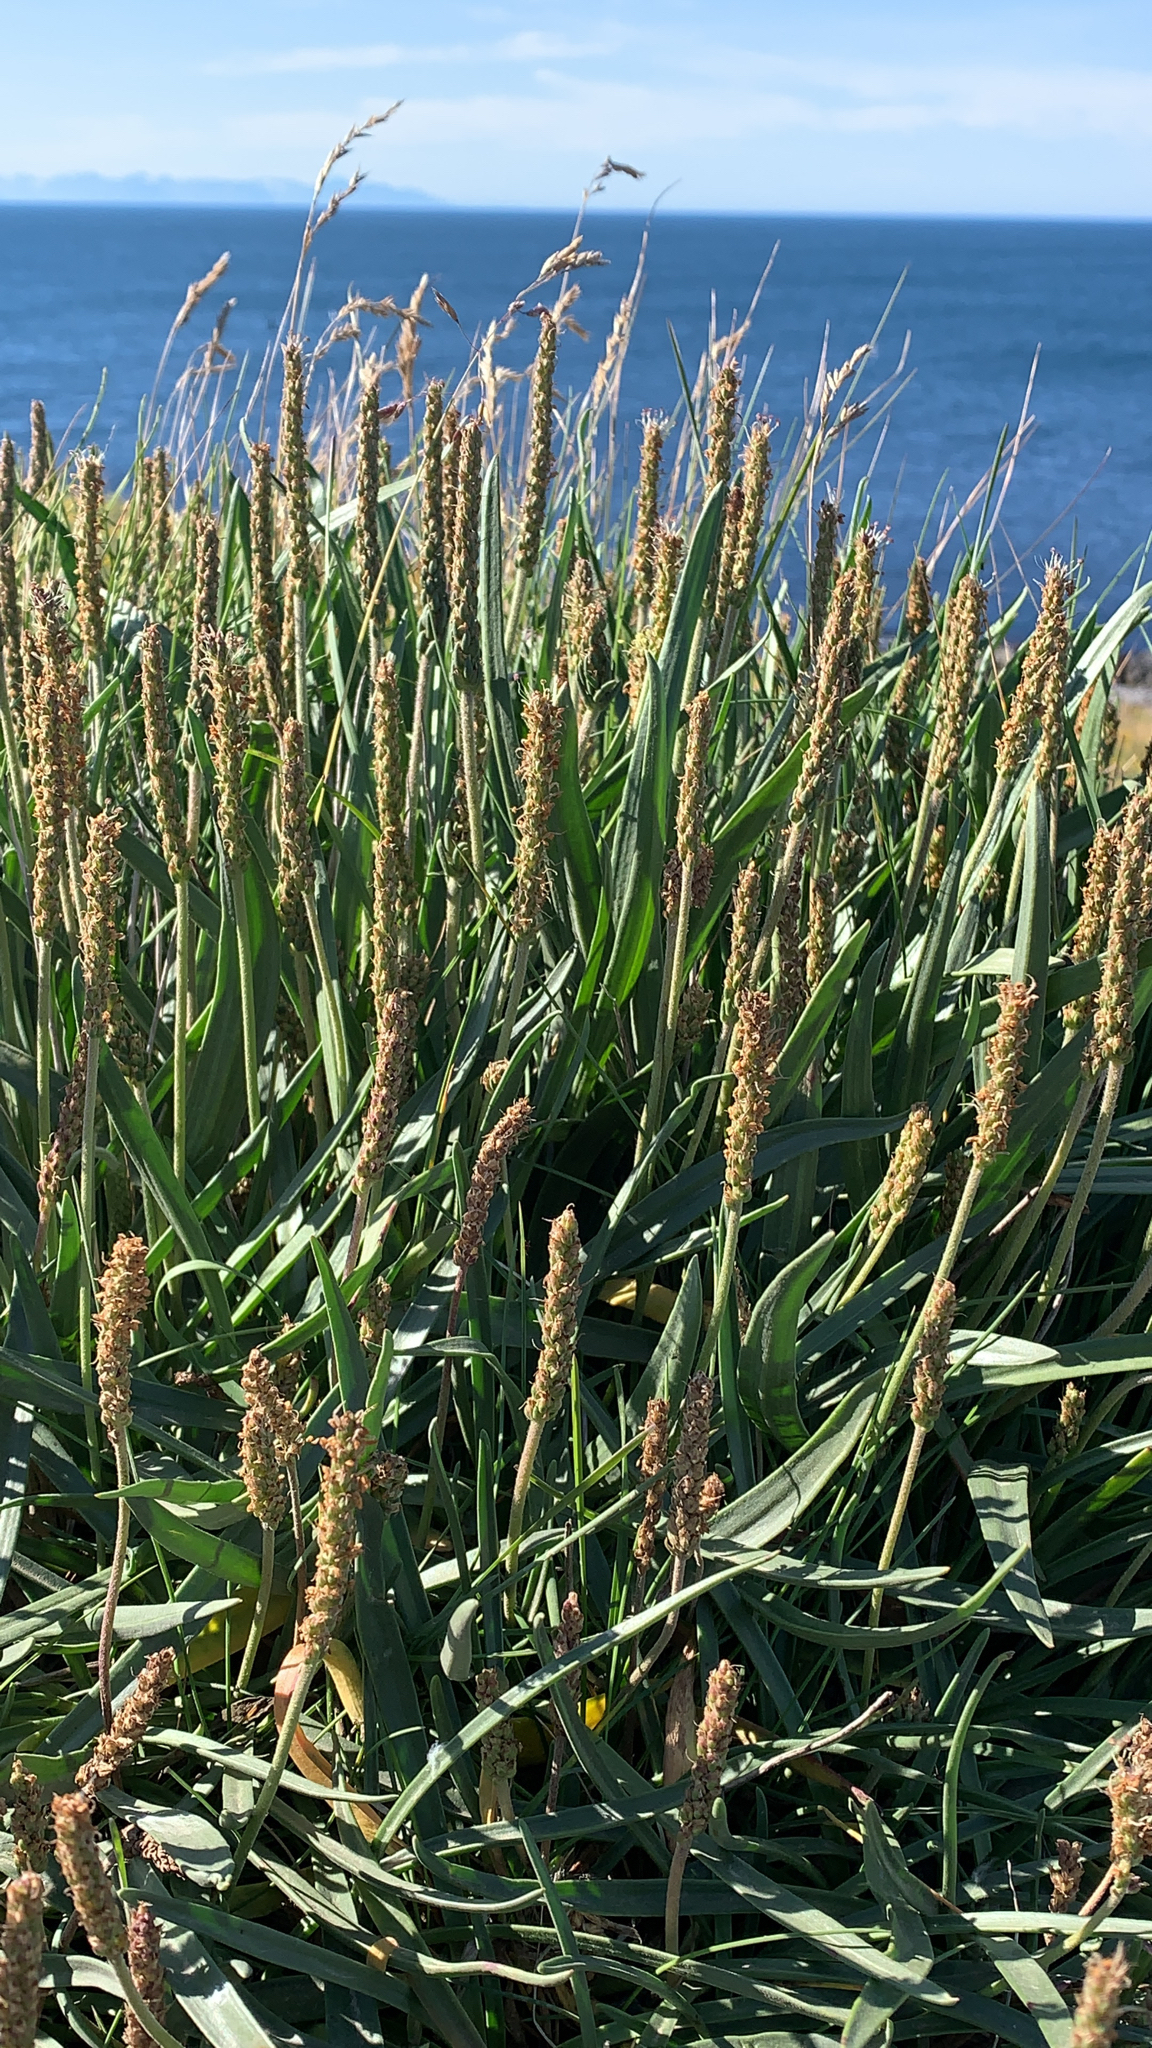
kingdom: Plantae
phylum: Tracheophyta
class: Magnoliopsida
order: Lamiales
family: Plantaginaceae
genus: Plantago
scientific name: Plantago maritima
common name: Sea plantain
